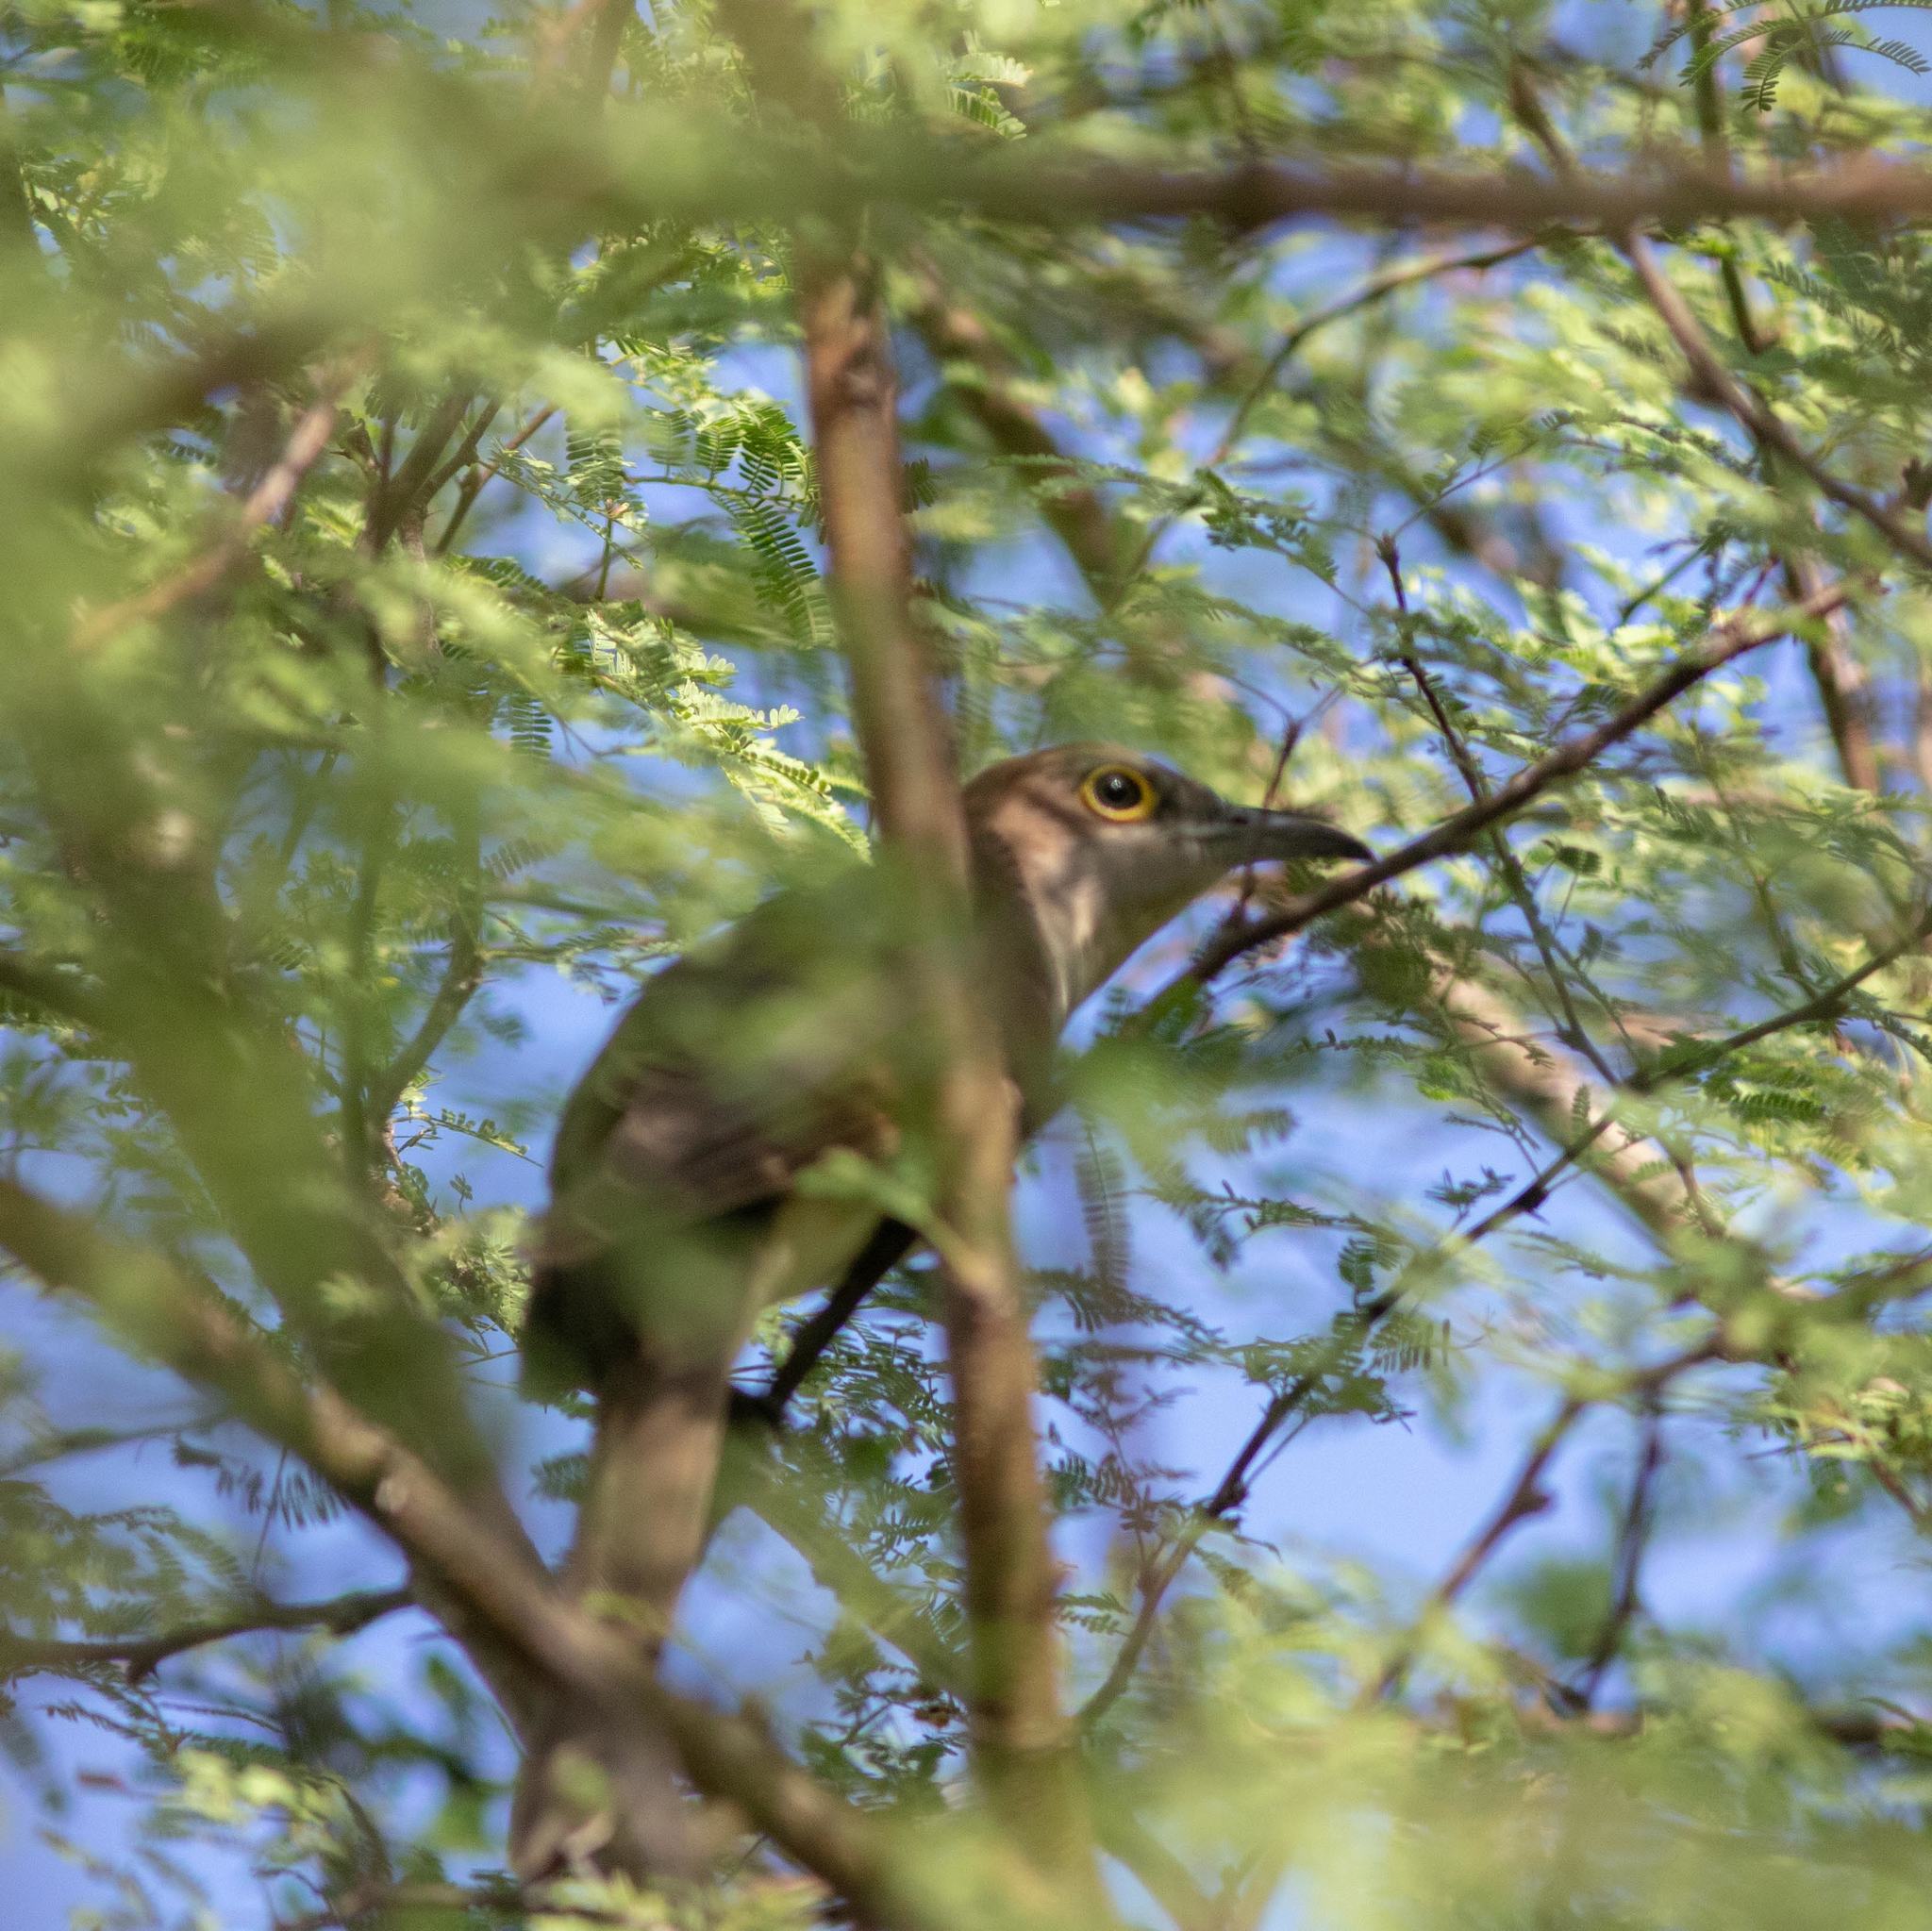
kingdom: Animalia
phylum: Chordata
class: Aves
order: Cuculiformes
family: Cuculidae
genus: Coccyzus
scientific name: Coccyzus erythropthalmus
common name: Black-billed cuckoo
